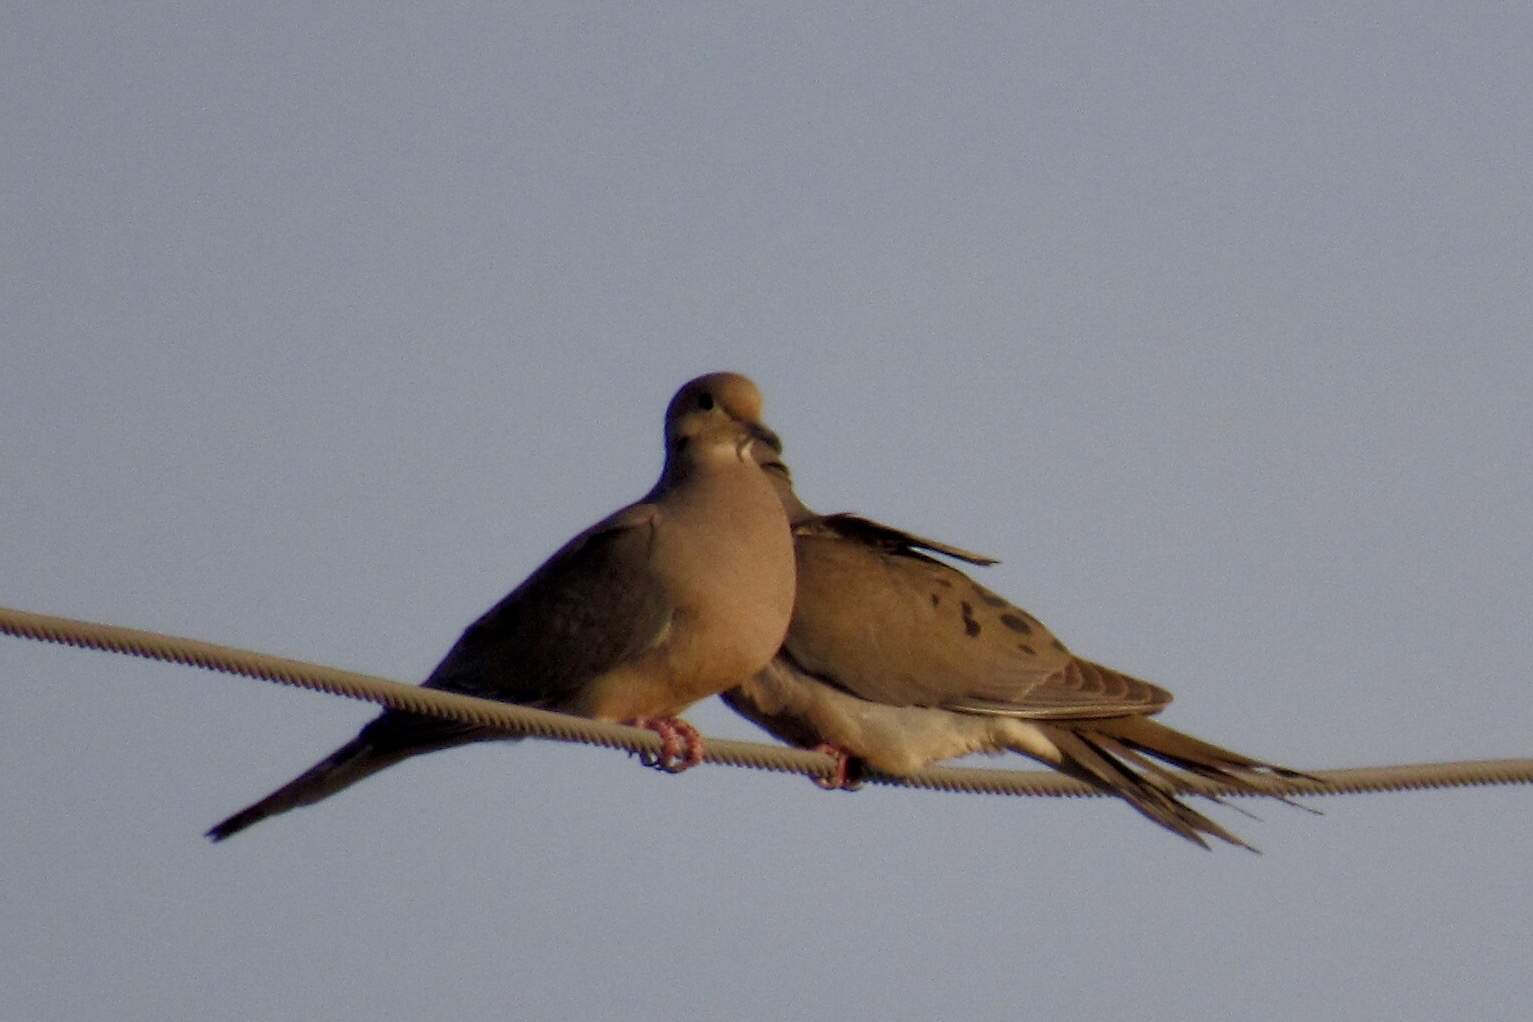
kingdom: Animalia
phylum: Chordata
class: Aves
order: Columbiformes
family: Columbidae
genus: Zenaida
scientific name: Zenaida macroura
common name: Mourning dove
